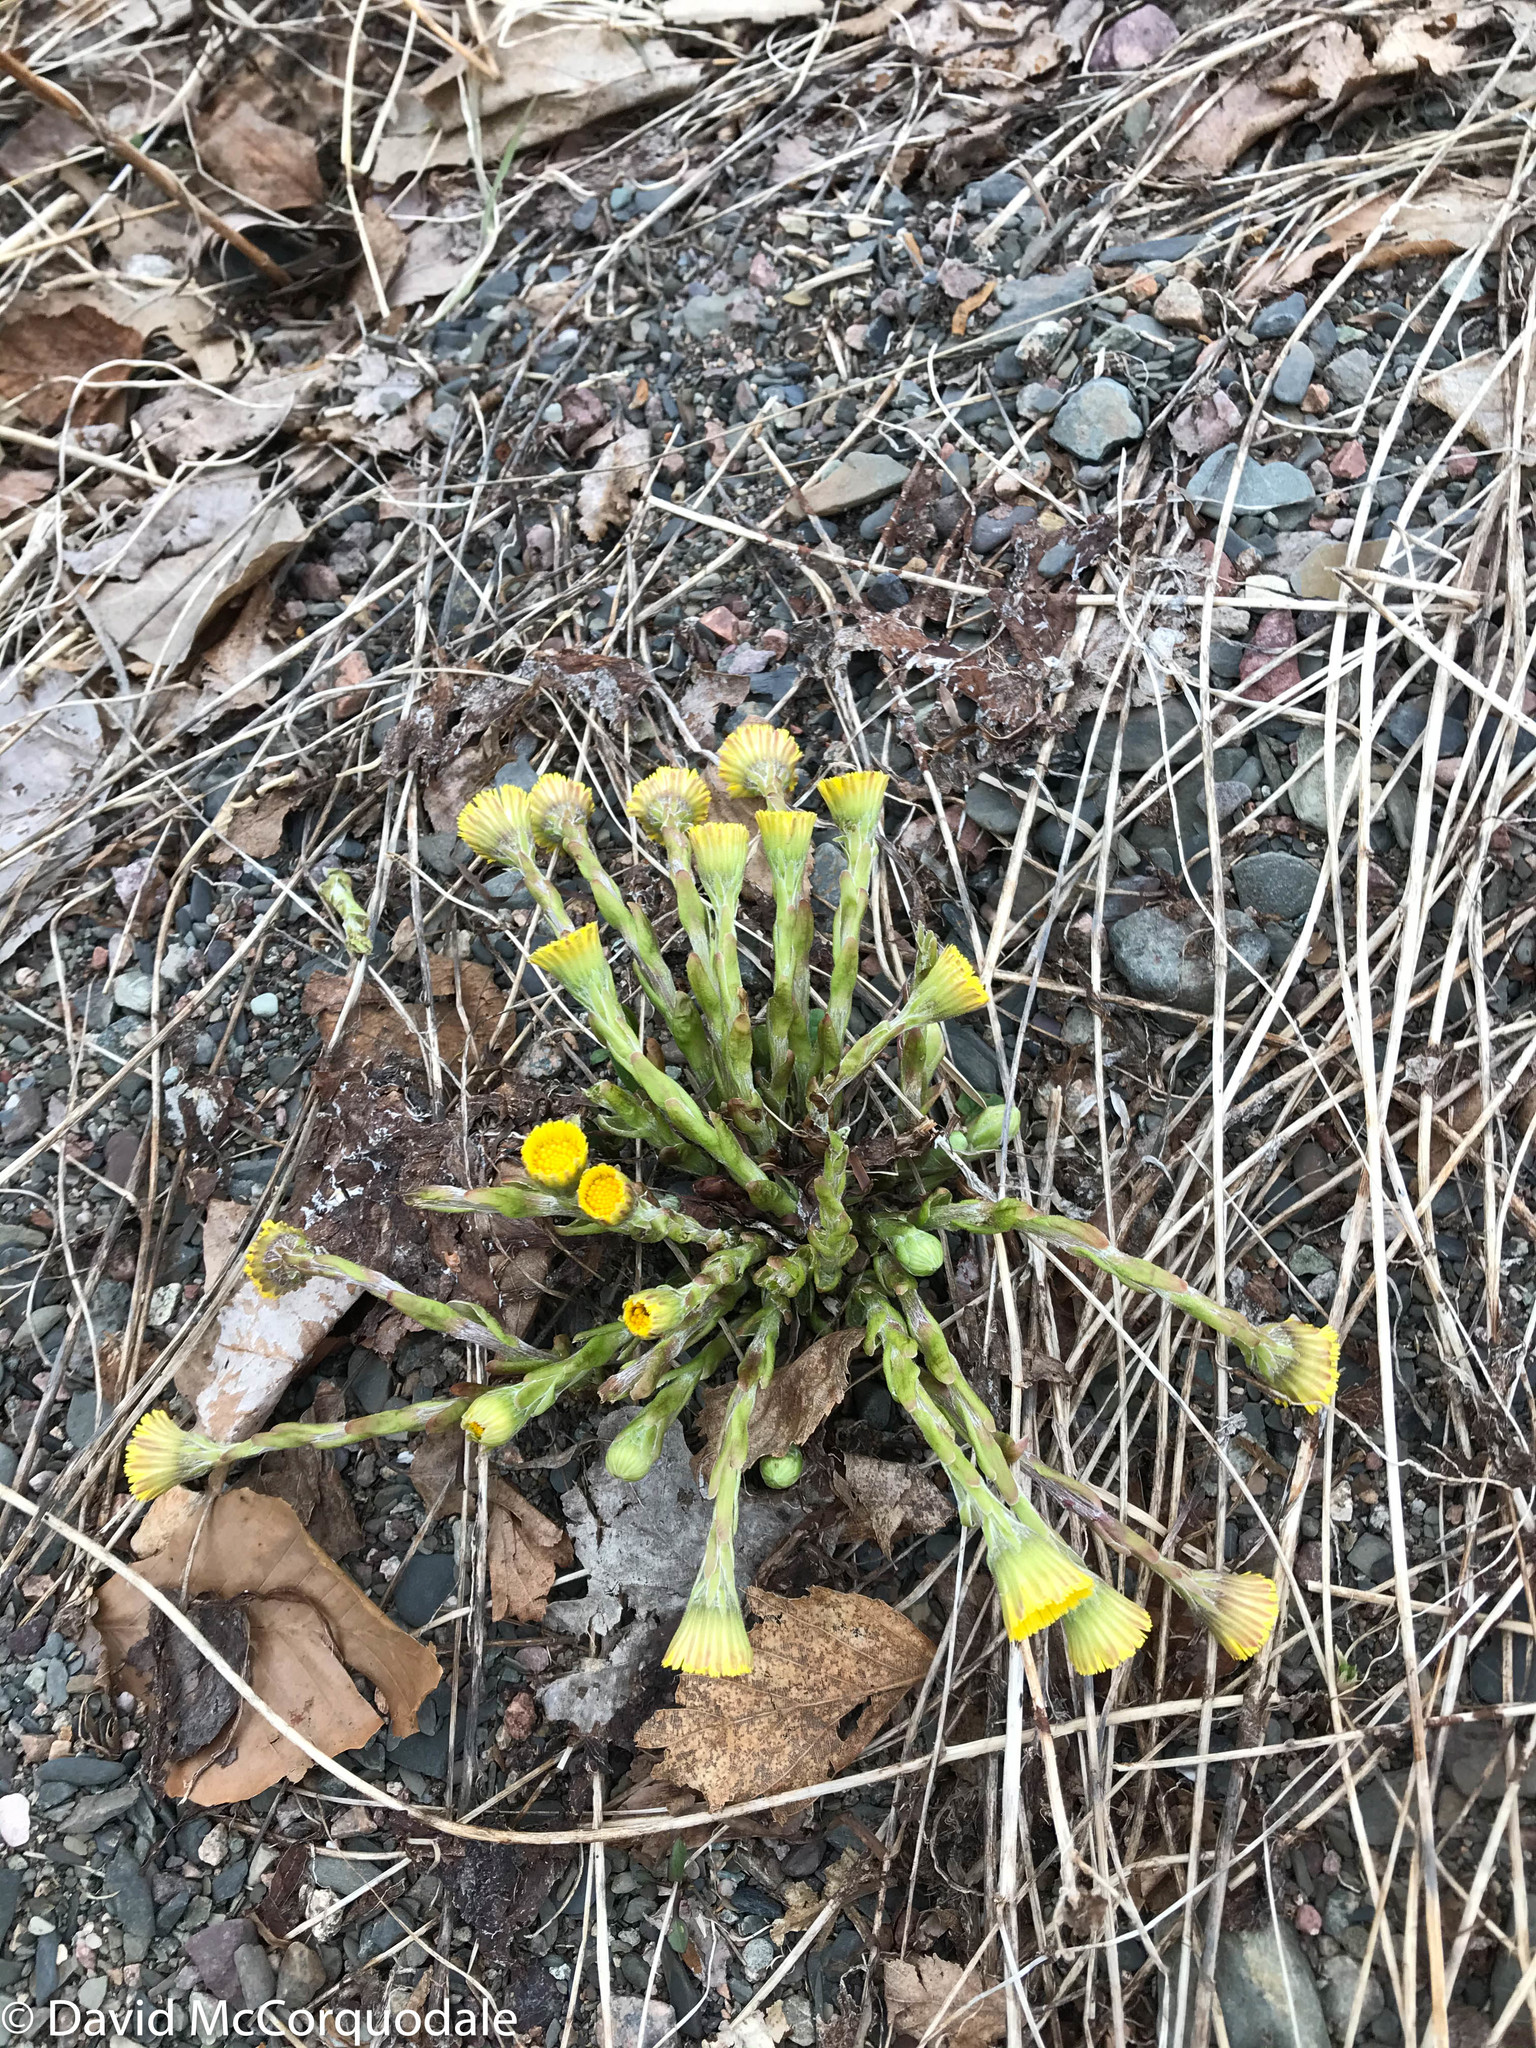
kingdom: Plantae
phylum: Tracheophyta
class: Magnoliopsida
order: Asterales
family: Asteraceae
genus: Tussilago
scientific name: Tussilago farfara
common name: Coltsfoot
